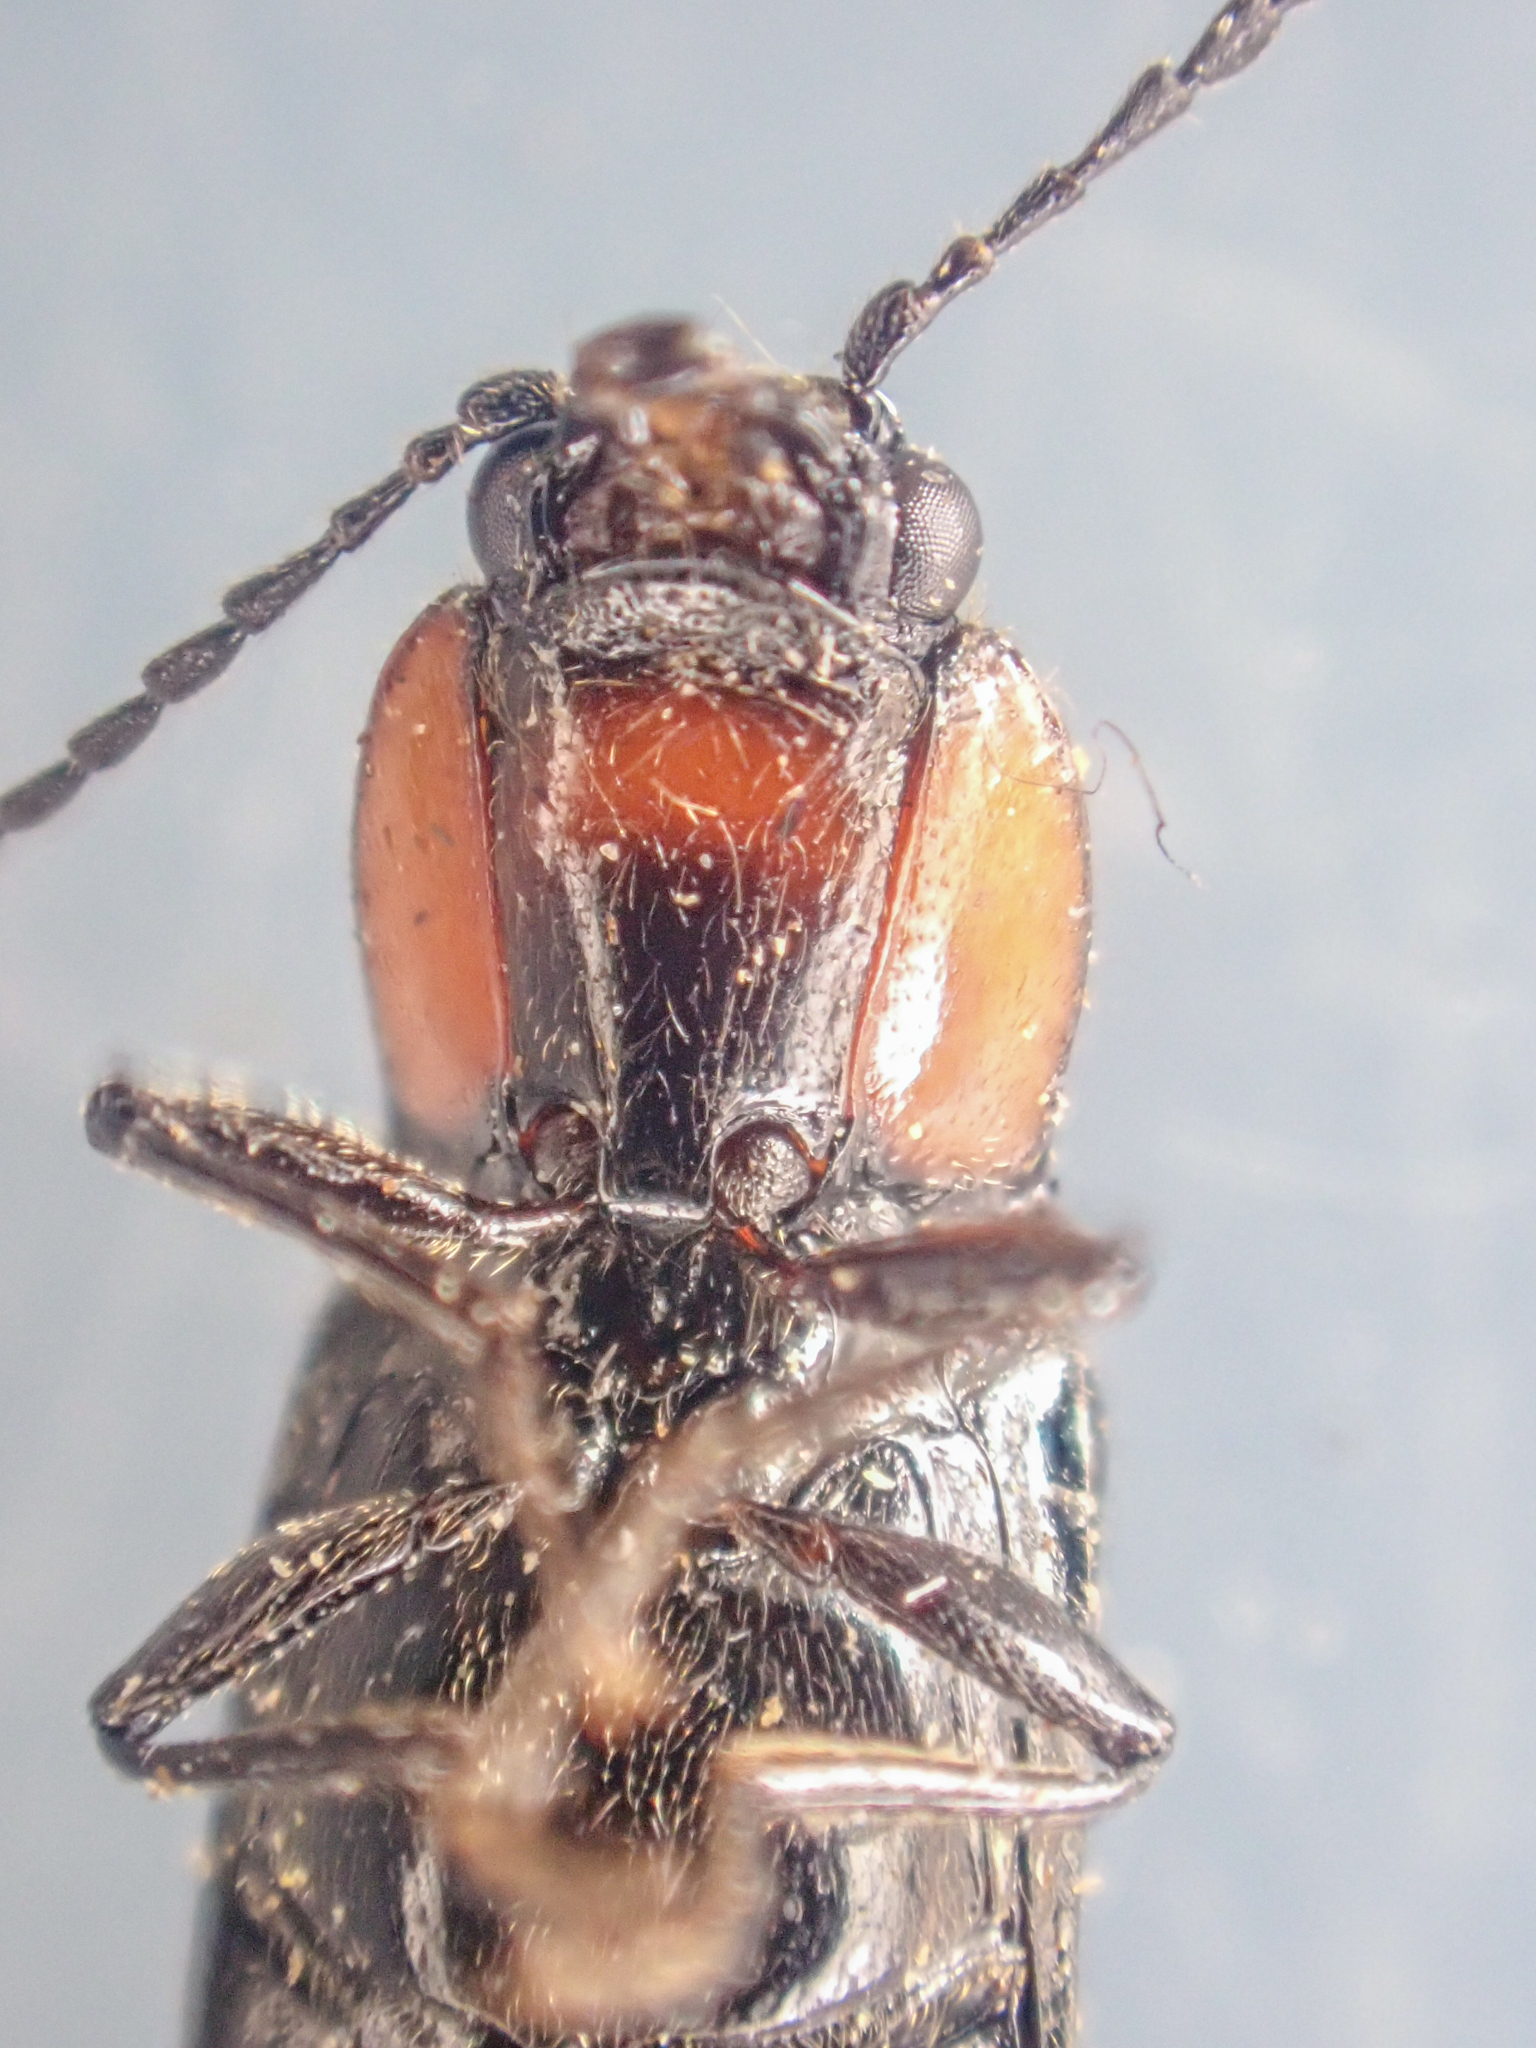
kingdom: Animalia
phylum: Arthropoda
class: Insecta
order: Coleoptera
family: Elateridae
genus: Hypoganus
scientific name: Hypoganus rotundicollis
